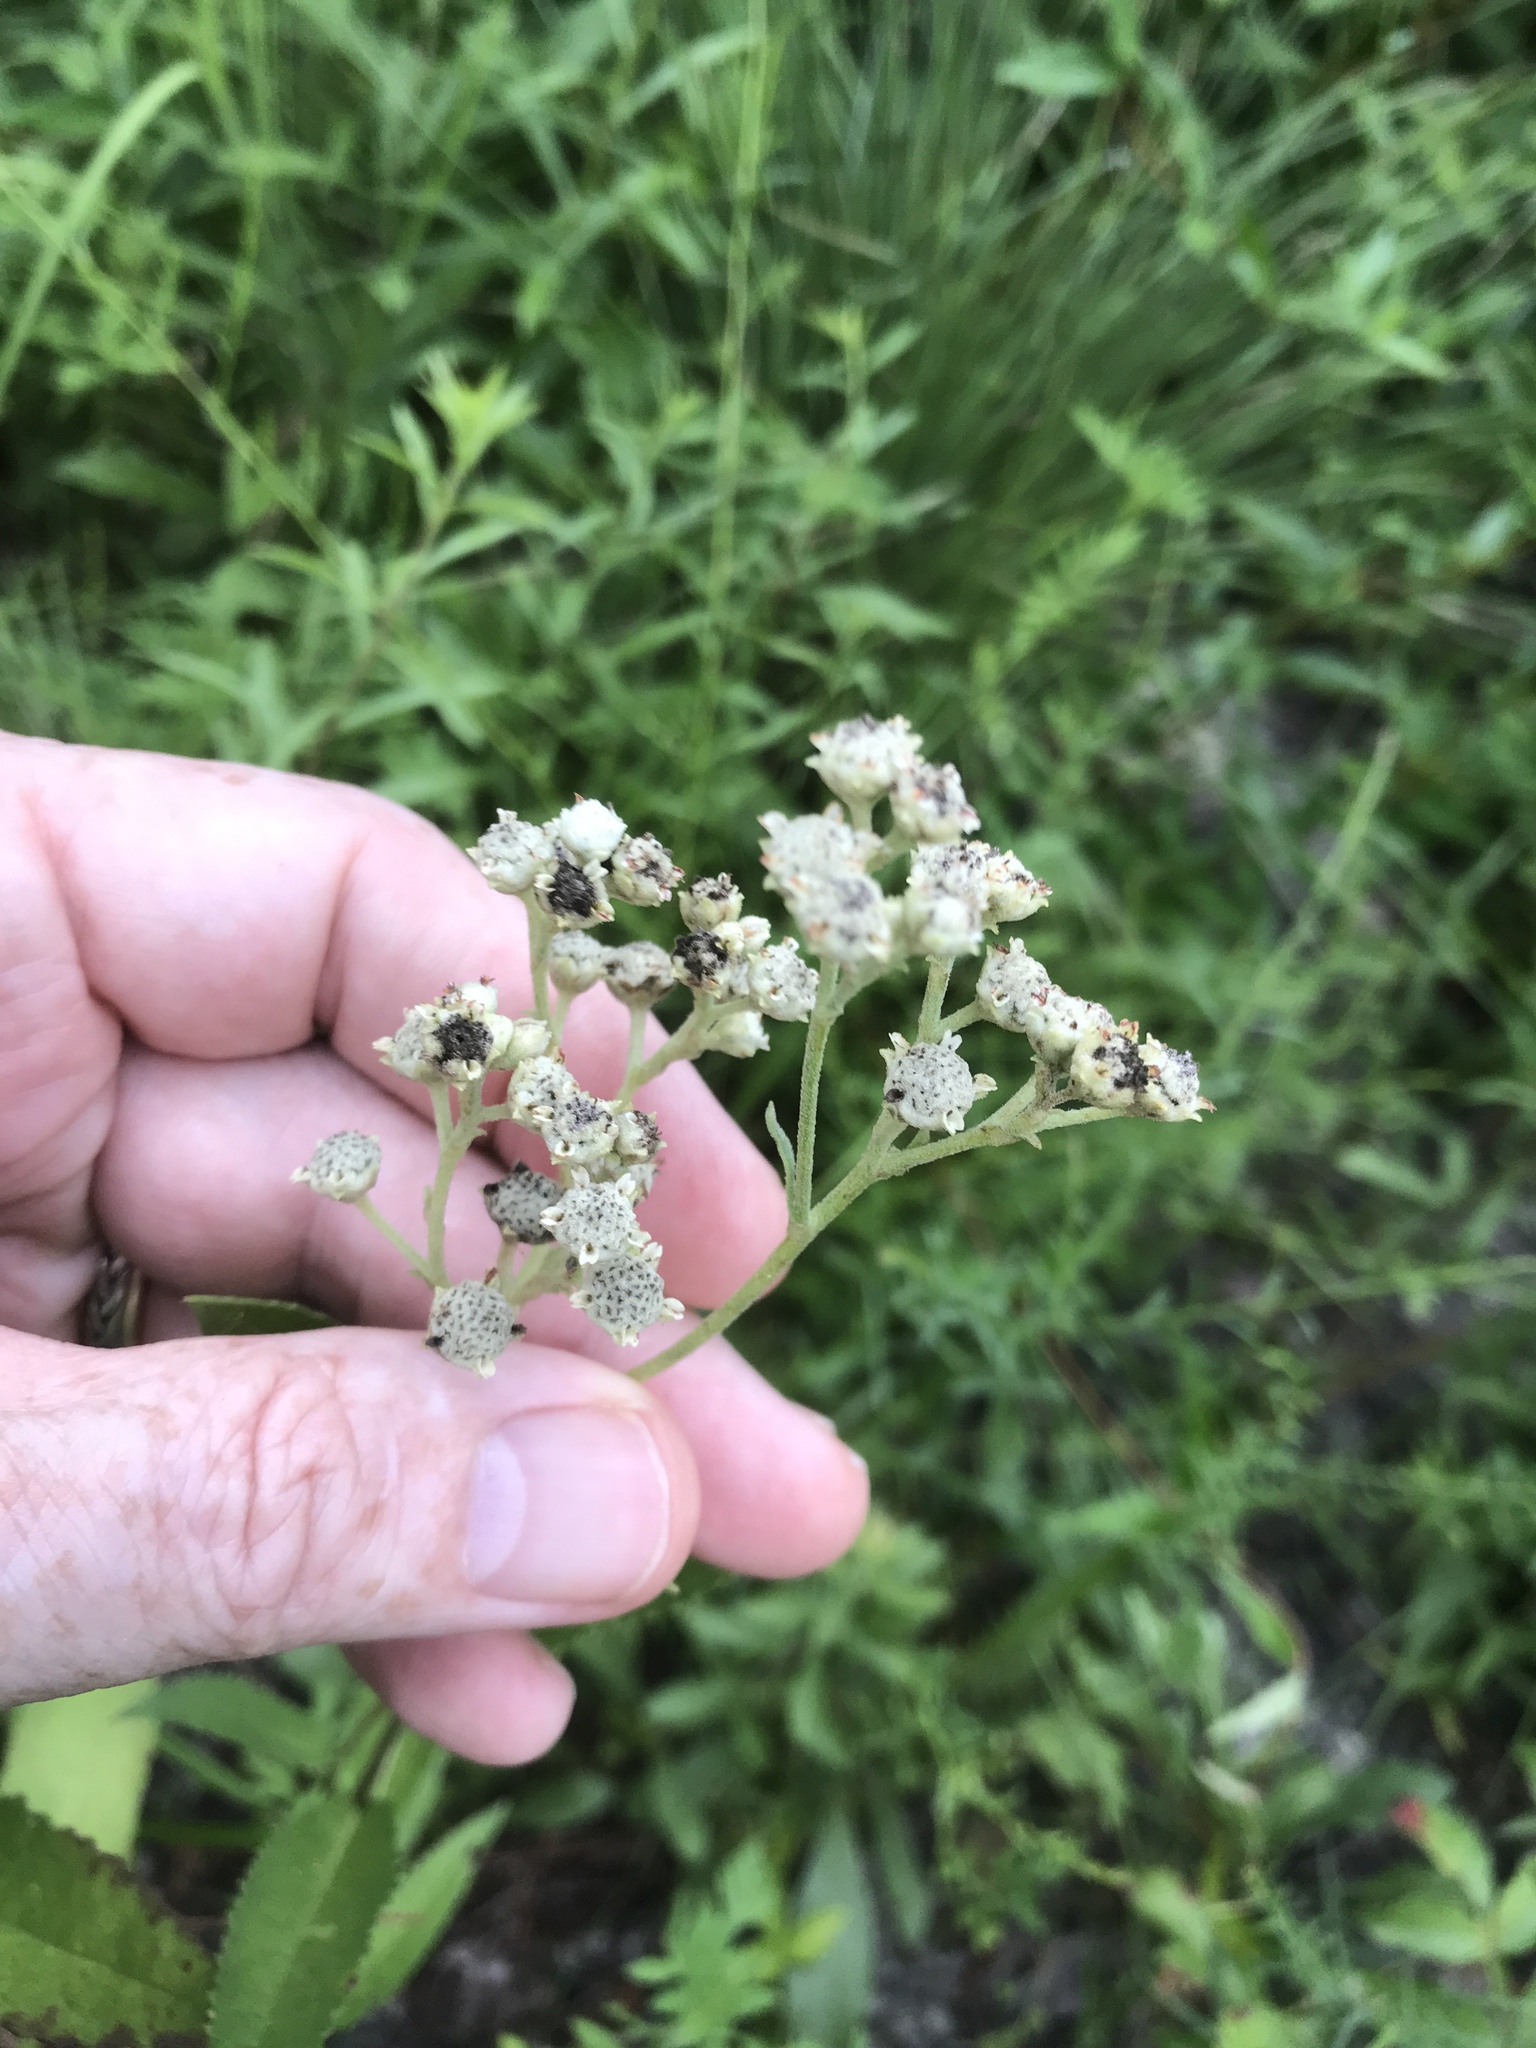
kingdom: Plantae
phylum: Tracheophyta
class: Magnoliopsida
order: Asterales
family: Asteraceae
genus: Parthenium
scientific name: Parthenium integrifolium
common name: American feverfew
